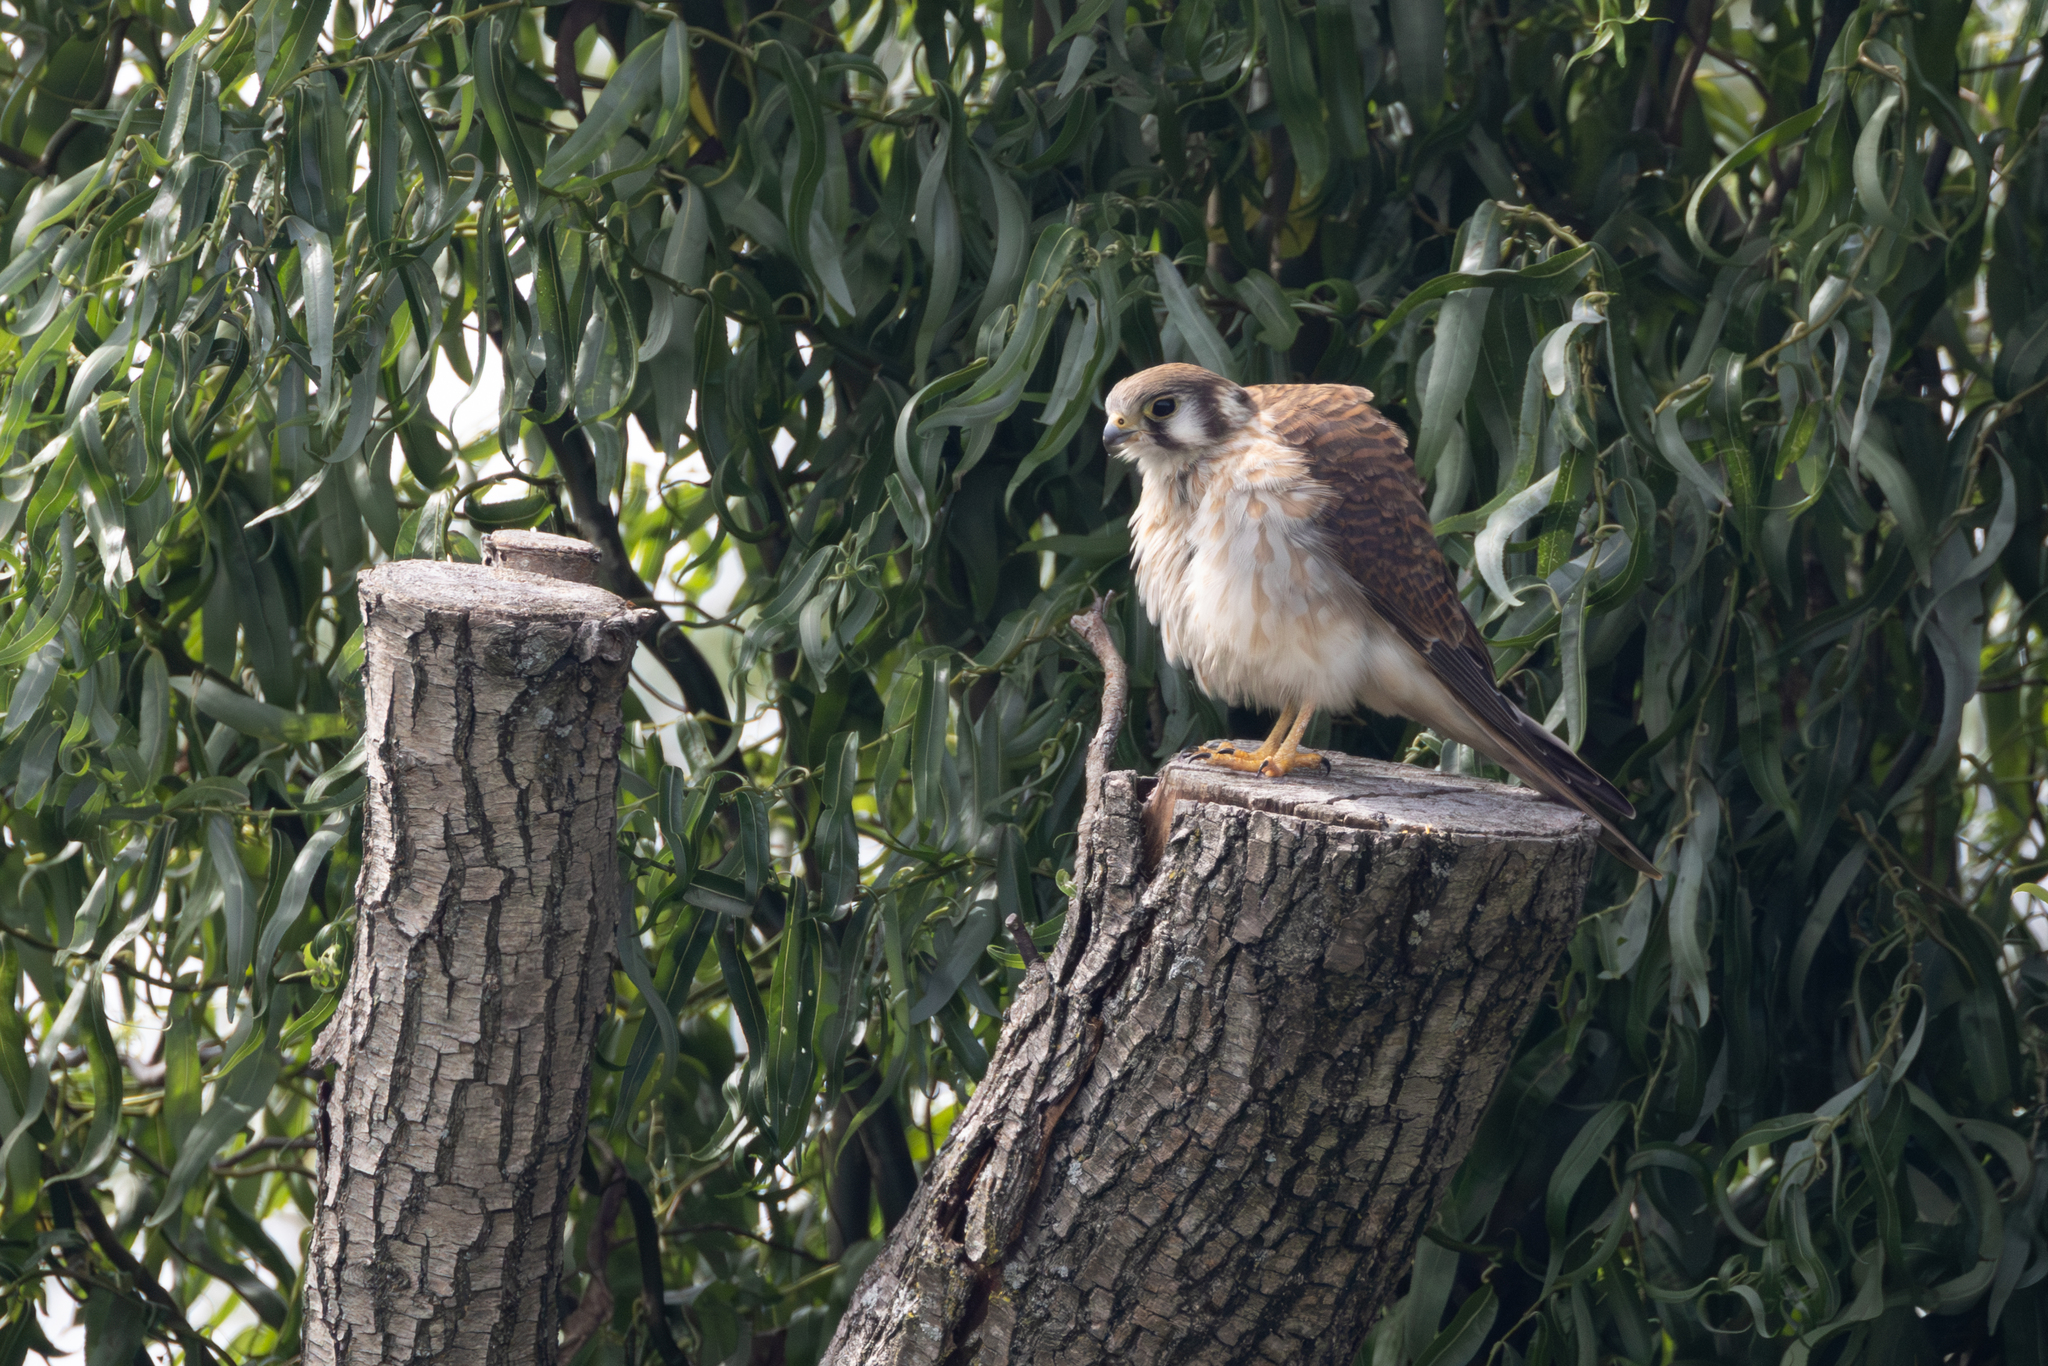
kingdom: Animalia
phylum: Chordata
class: Aves
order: Falconiformes
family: Falconidae
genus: Falco
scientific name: Falco sparverius
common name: American kestrel
